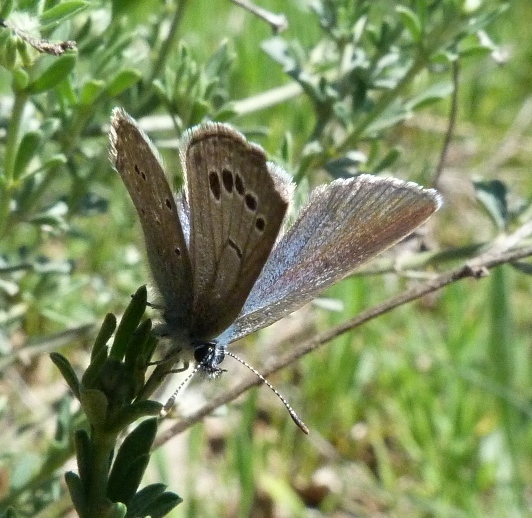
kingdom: Animalia
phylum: Arthropoda
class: Insecta
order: Lepidoptera
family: Lycaenidae
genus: Glaucopsyche
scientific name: Glaucopsyche melanops
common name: Black-eyed blue
